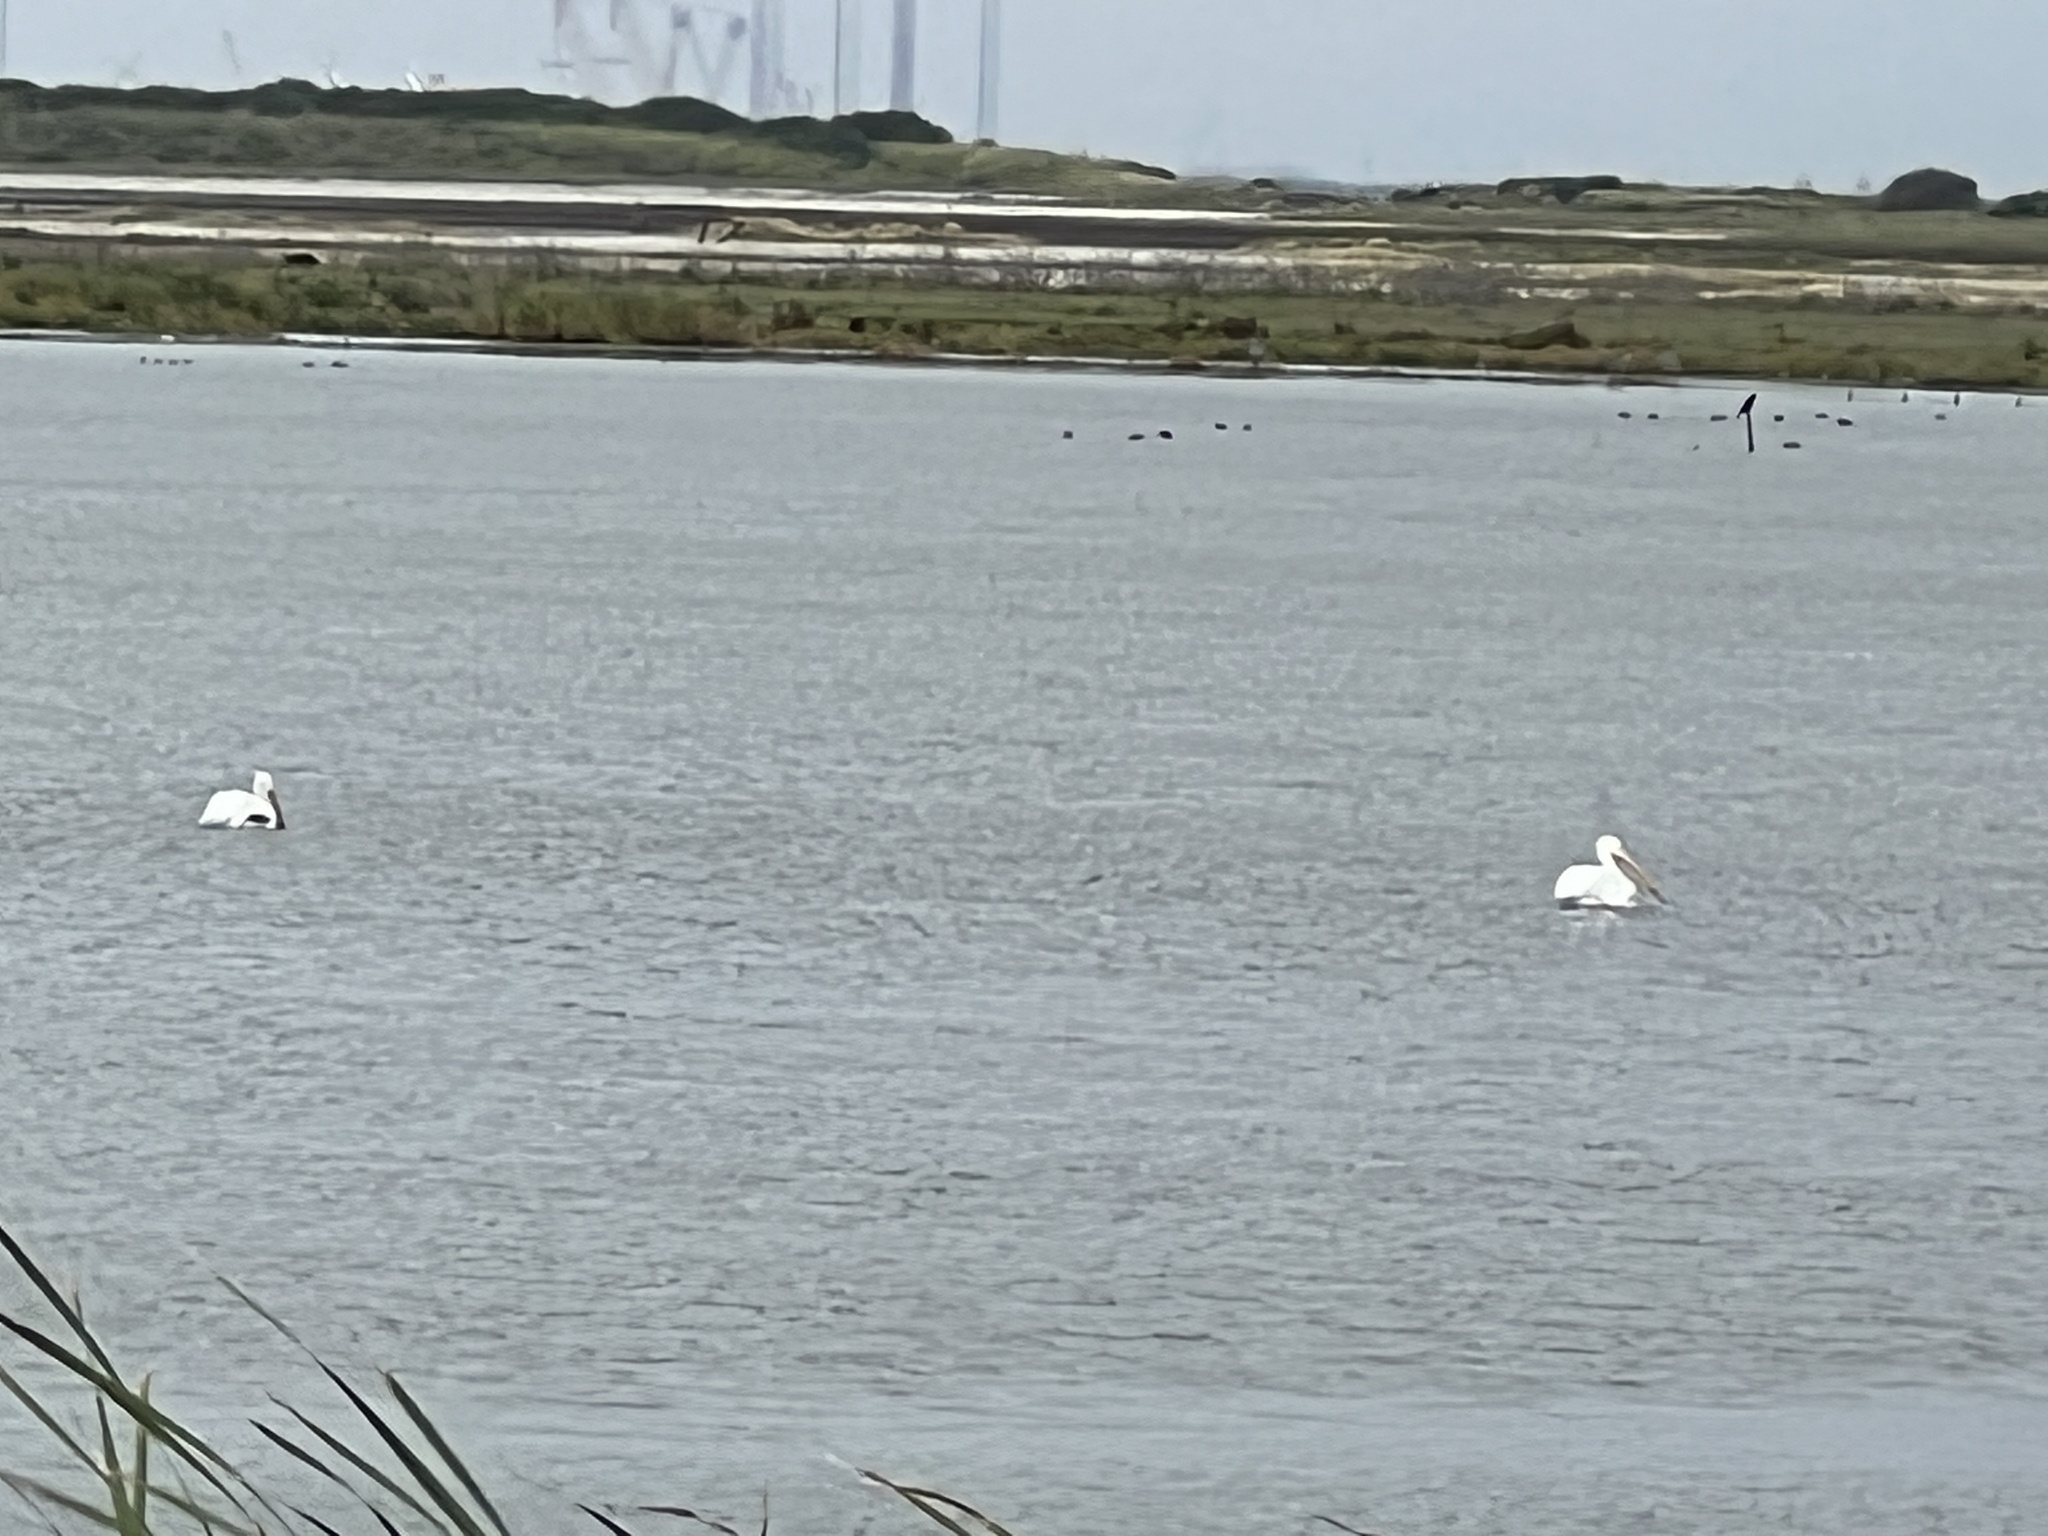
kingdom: Animalia
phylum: Chordata
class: Aves
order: Pelecaniformes
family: Pelecanidae
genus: Pelecanus
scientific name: Pelecanus erythrorhynchos
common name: American white pelican
